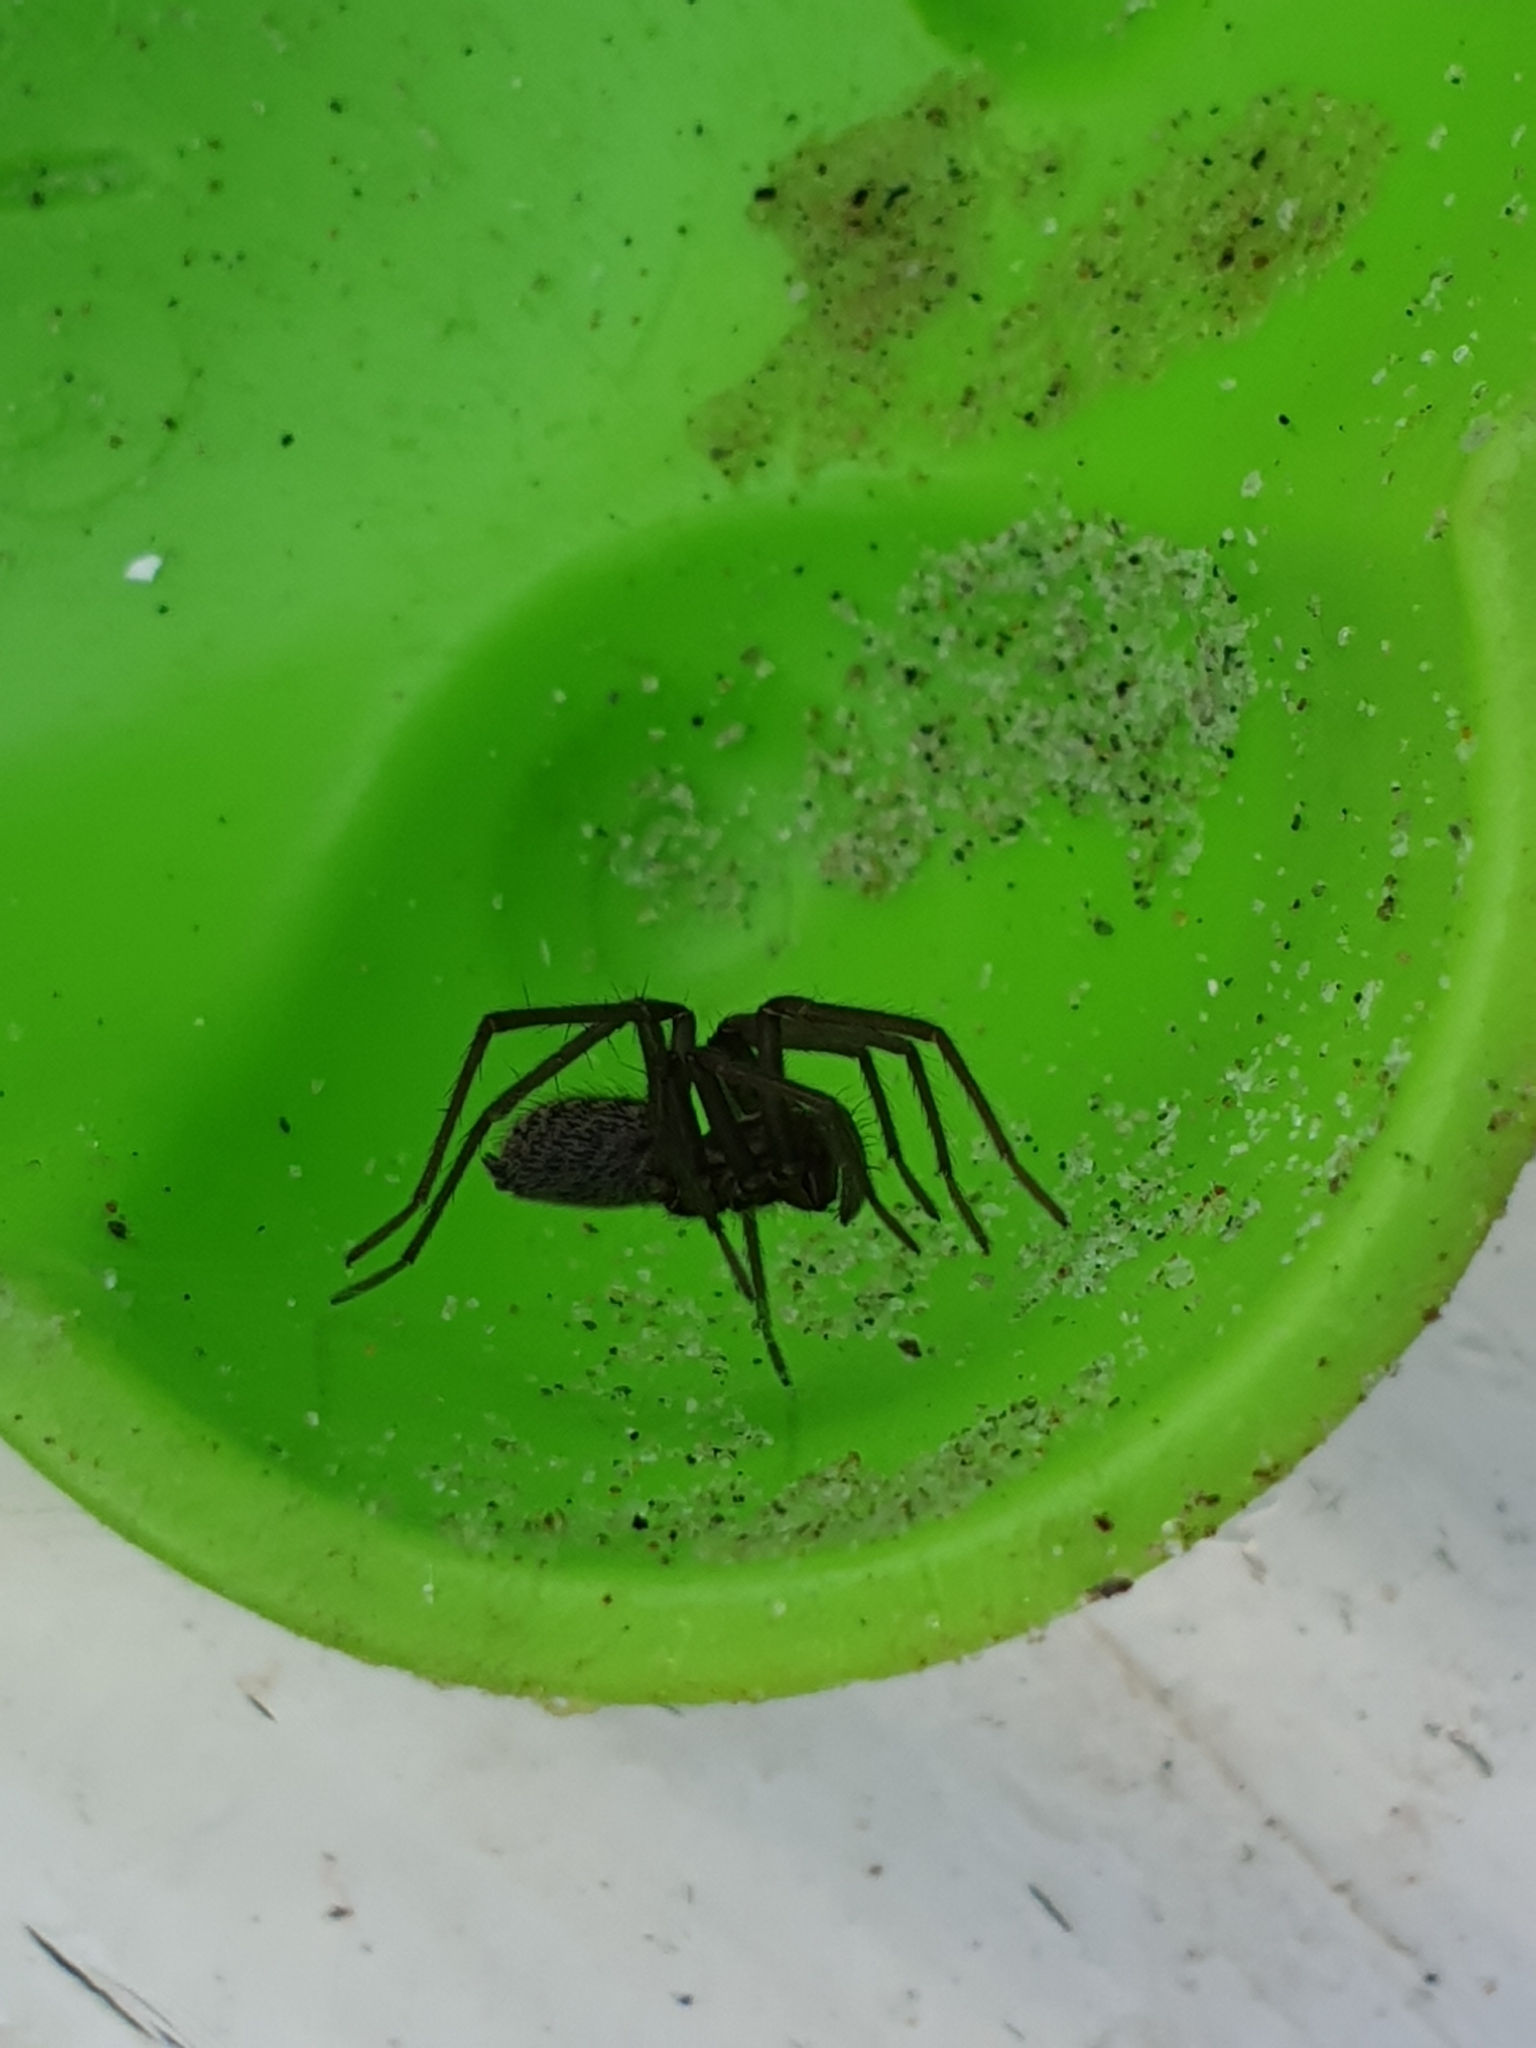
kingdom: Animalia
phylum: Arthropoda
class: Arachnida
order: Araneae
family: Agelenidae
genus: Eratigena
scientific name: Eratigena atrica
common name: Giant house spider
